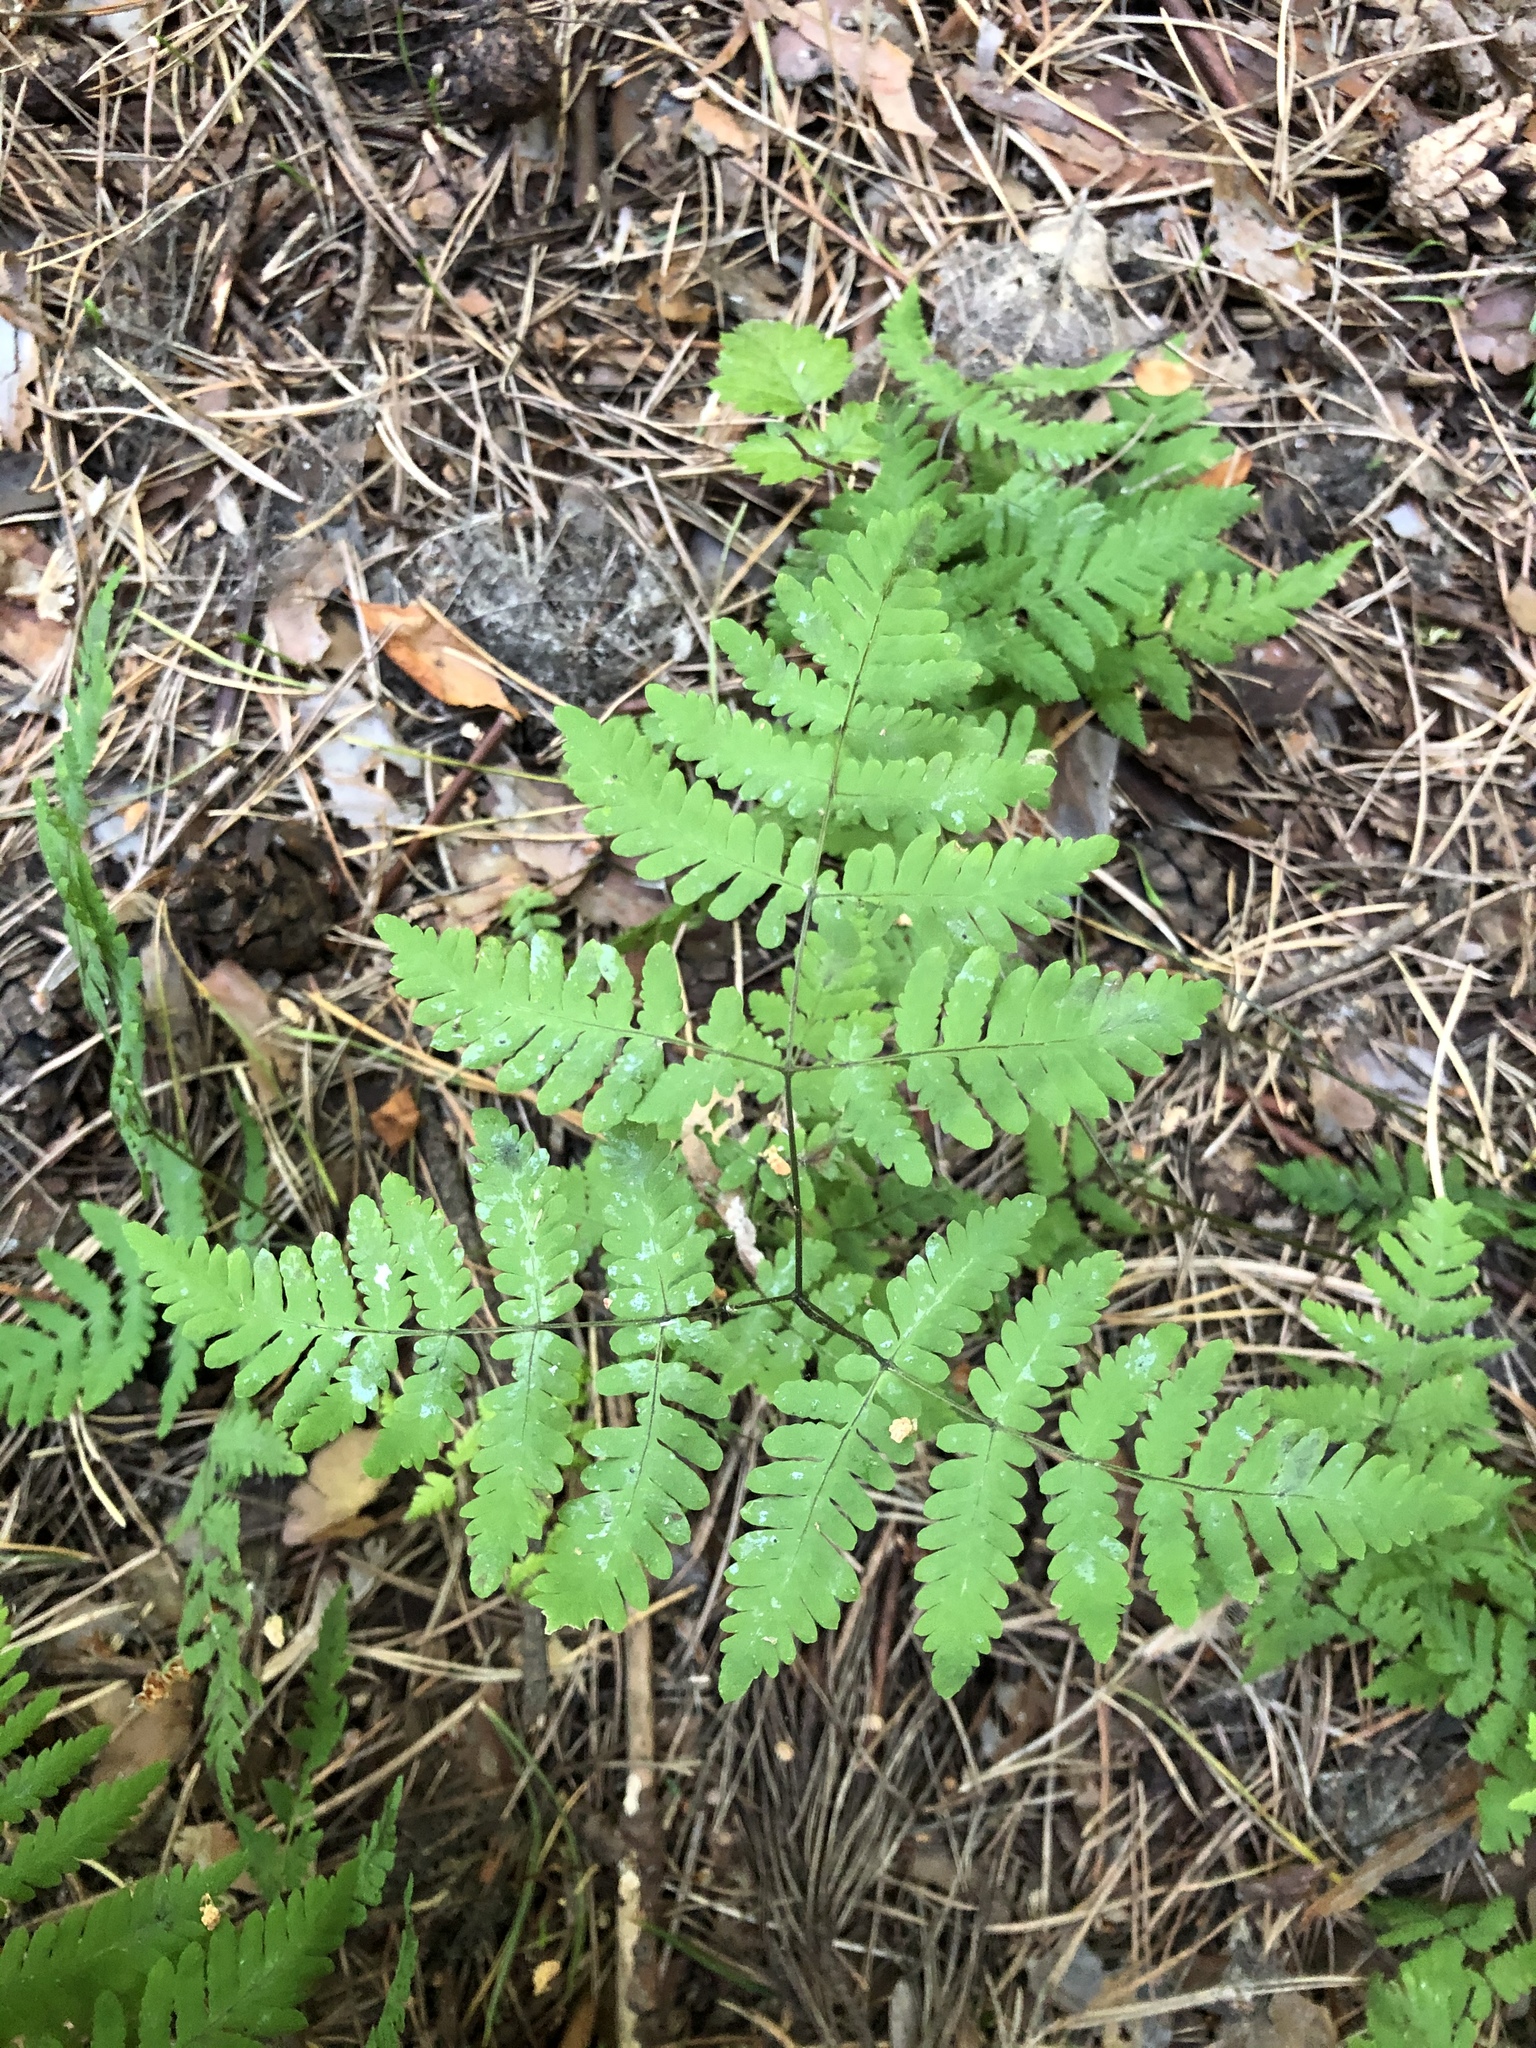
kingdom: Plantae
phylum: Tracheophyta
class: Polypodiopsida
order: Polypodiales
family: Cystopteridaceae
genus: Gymnocarpium
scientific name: Gymnocarpium dryopteris
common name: Oak fern
